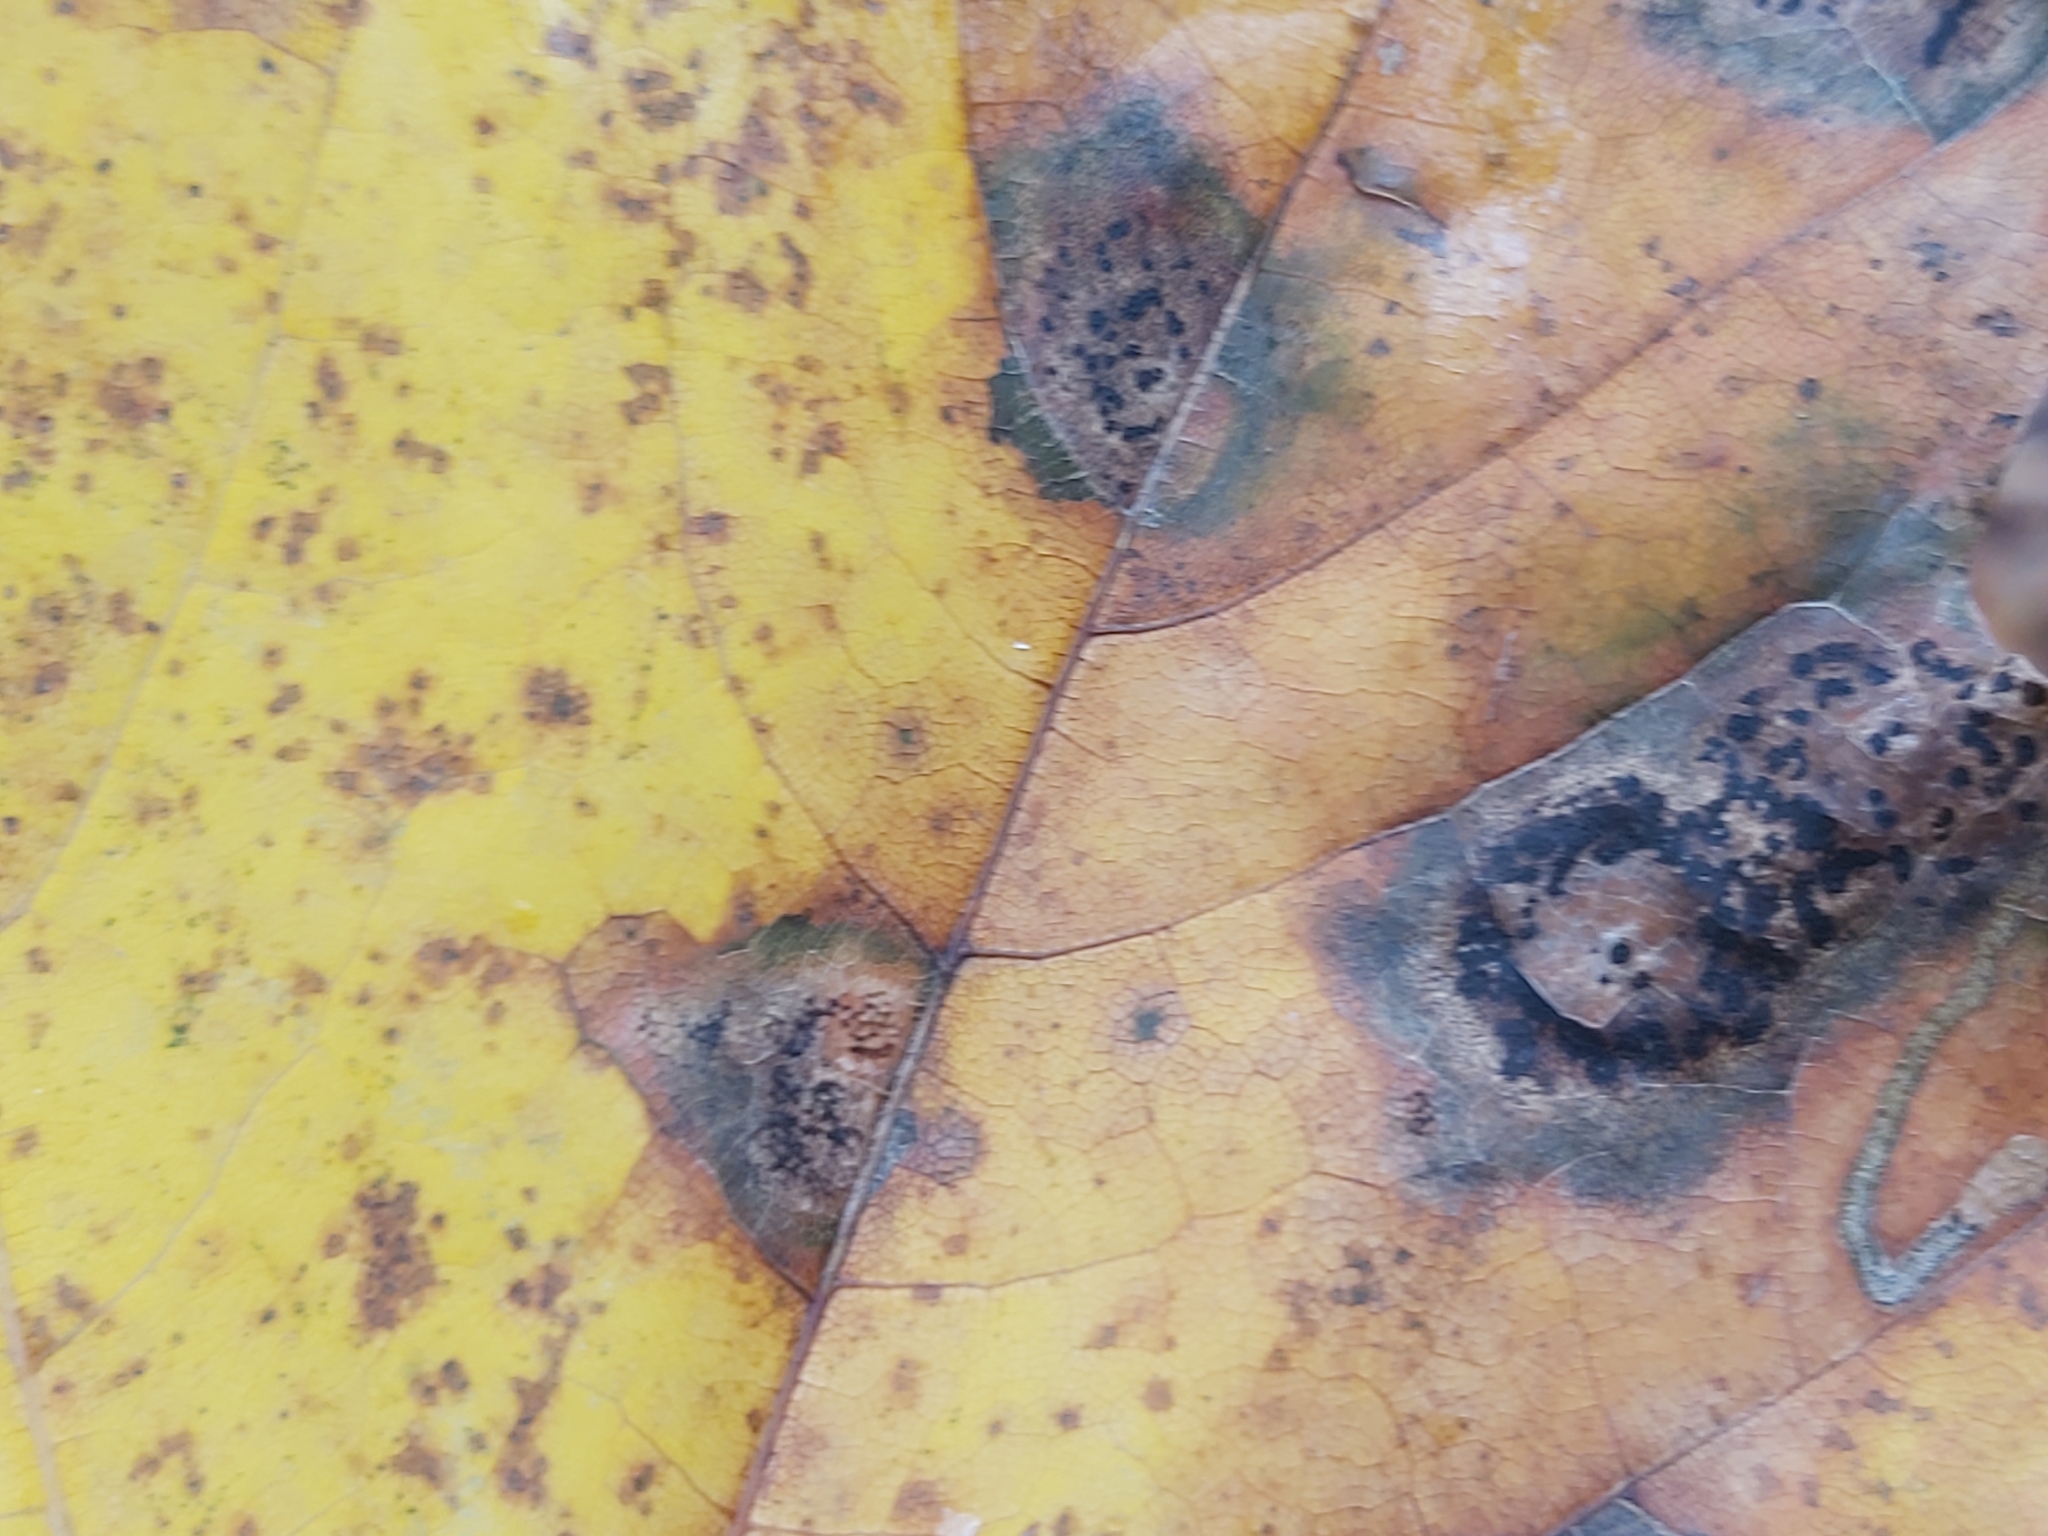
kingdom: Fungi
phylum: Ascomycota
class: Leotiomycetes
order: Rhytismatales
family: Rhytismataceae
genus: Rhytisma
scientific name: Rhytisma acerinum
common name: European tar spot
